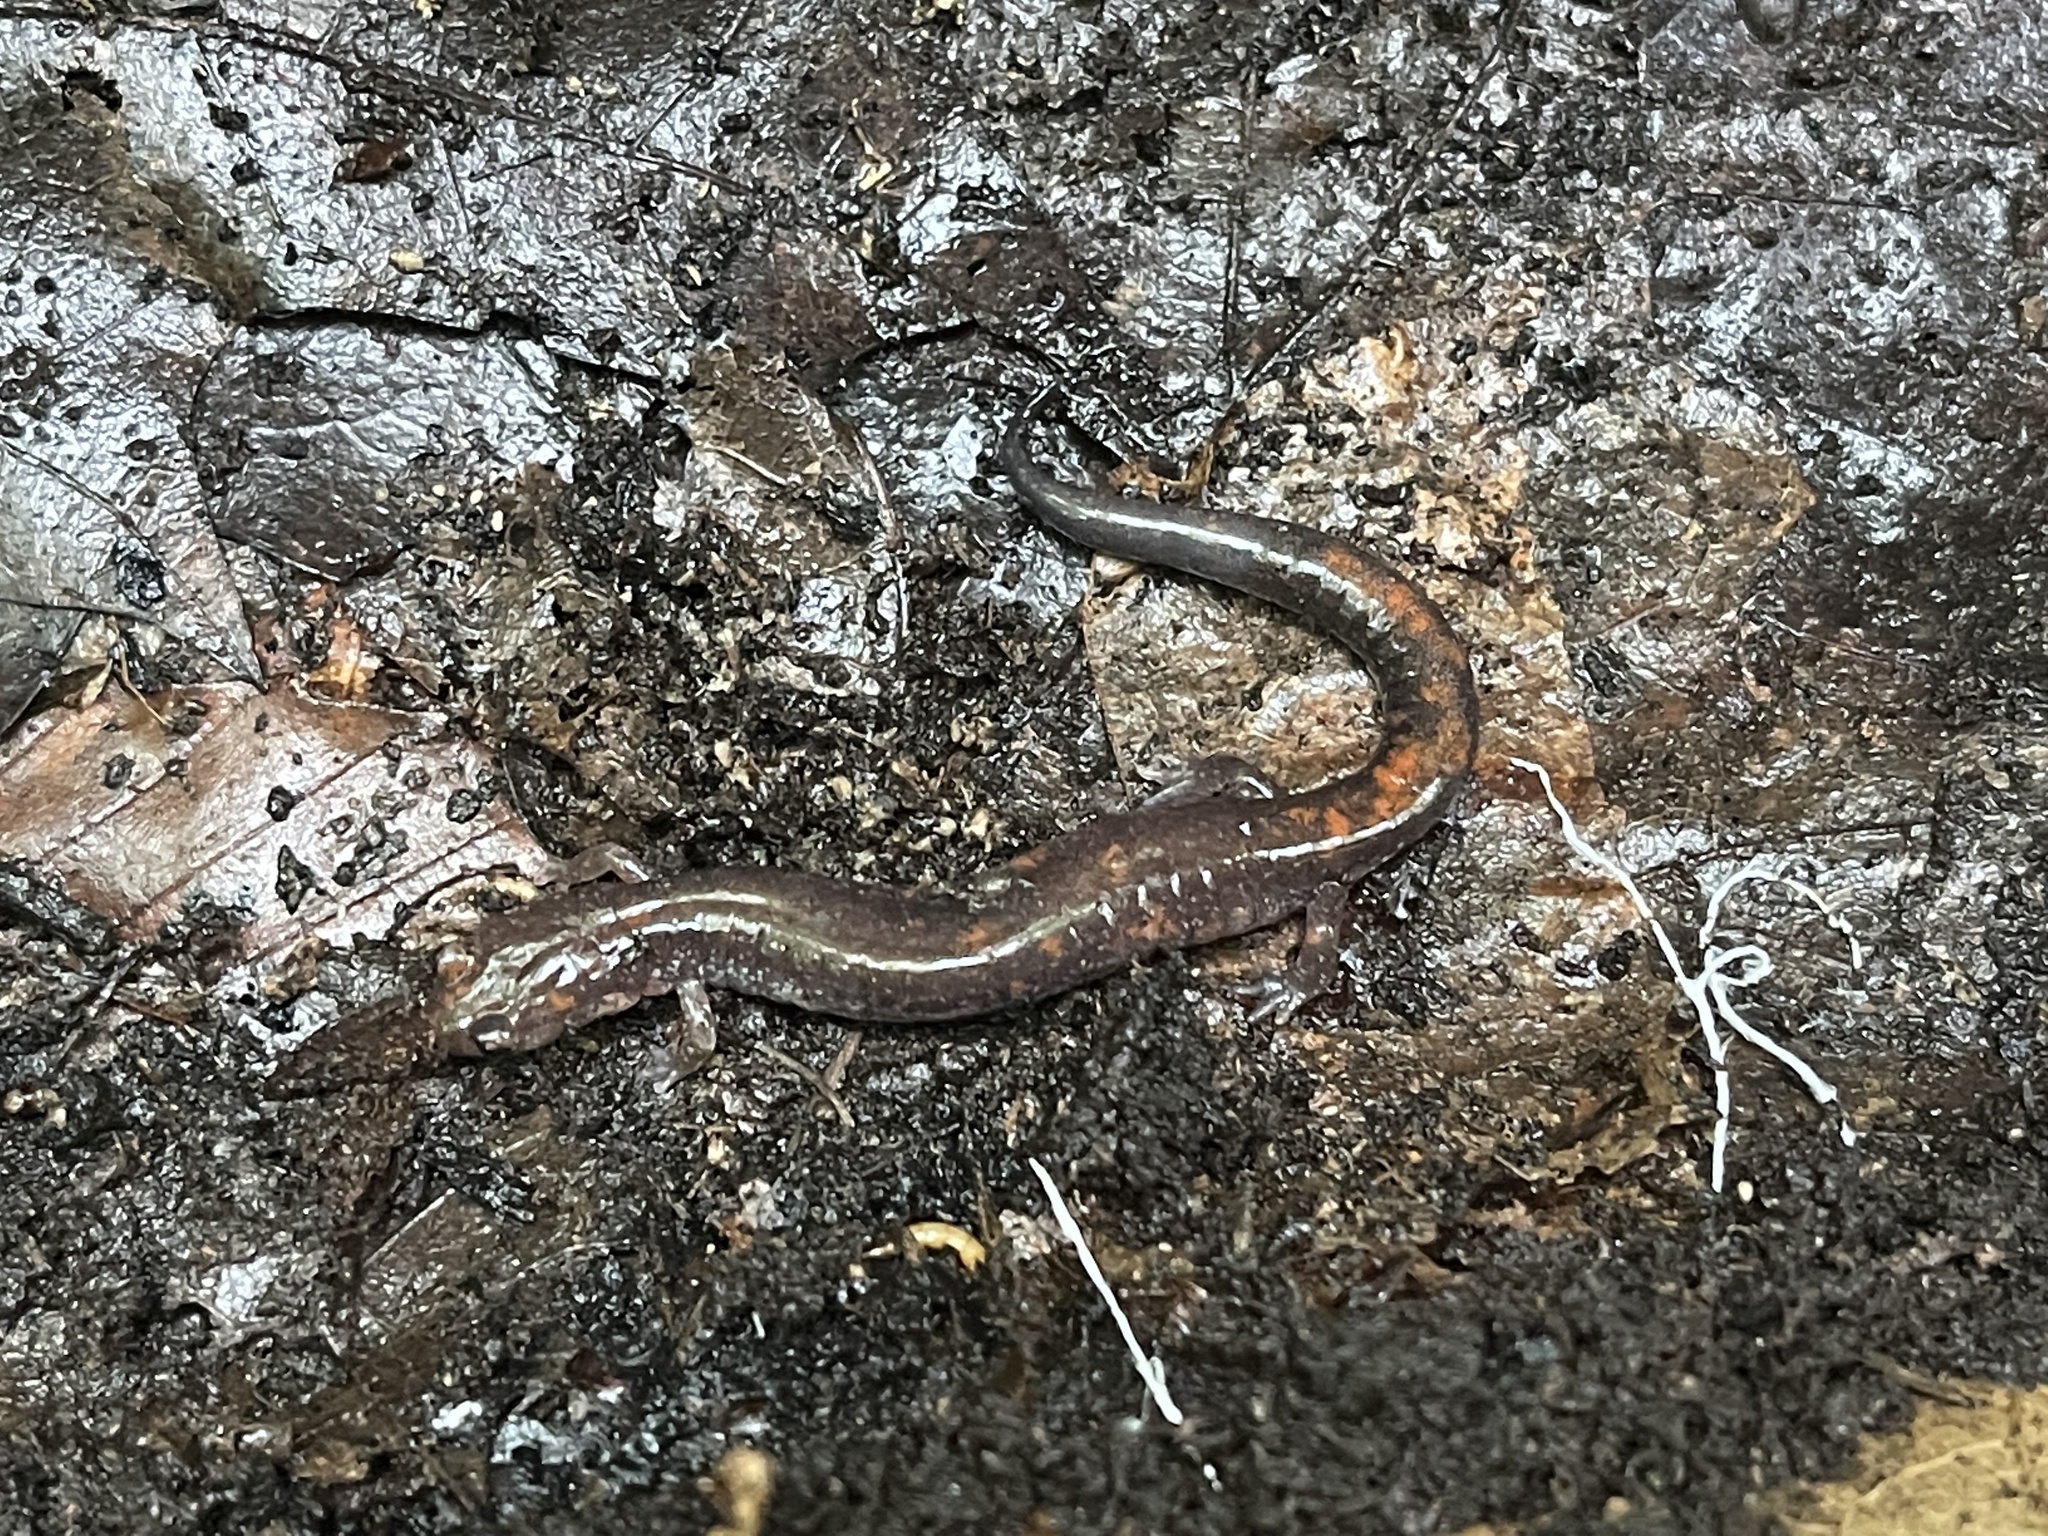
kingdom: Animalia
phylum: Chordata
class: Amphibia
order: Caudata
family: Plethodontidae
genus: Plethodon
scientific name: Plethodon cinereus
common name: Redback salamander
